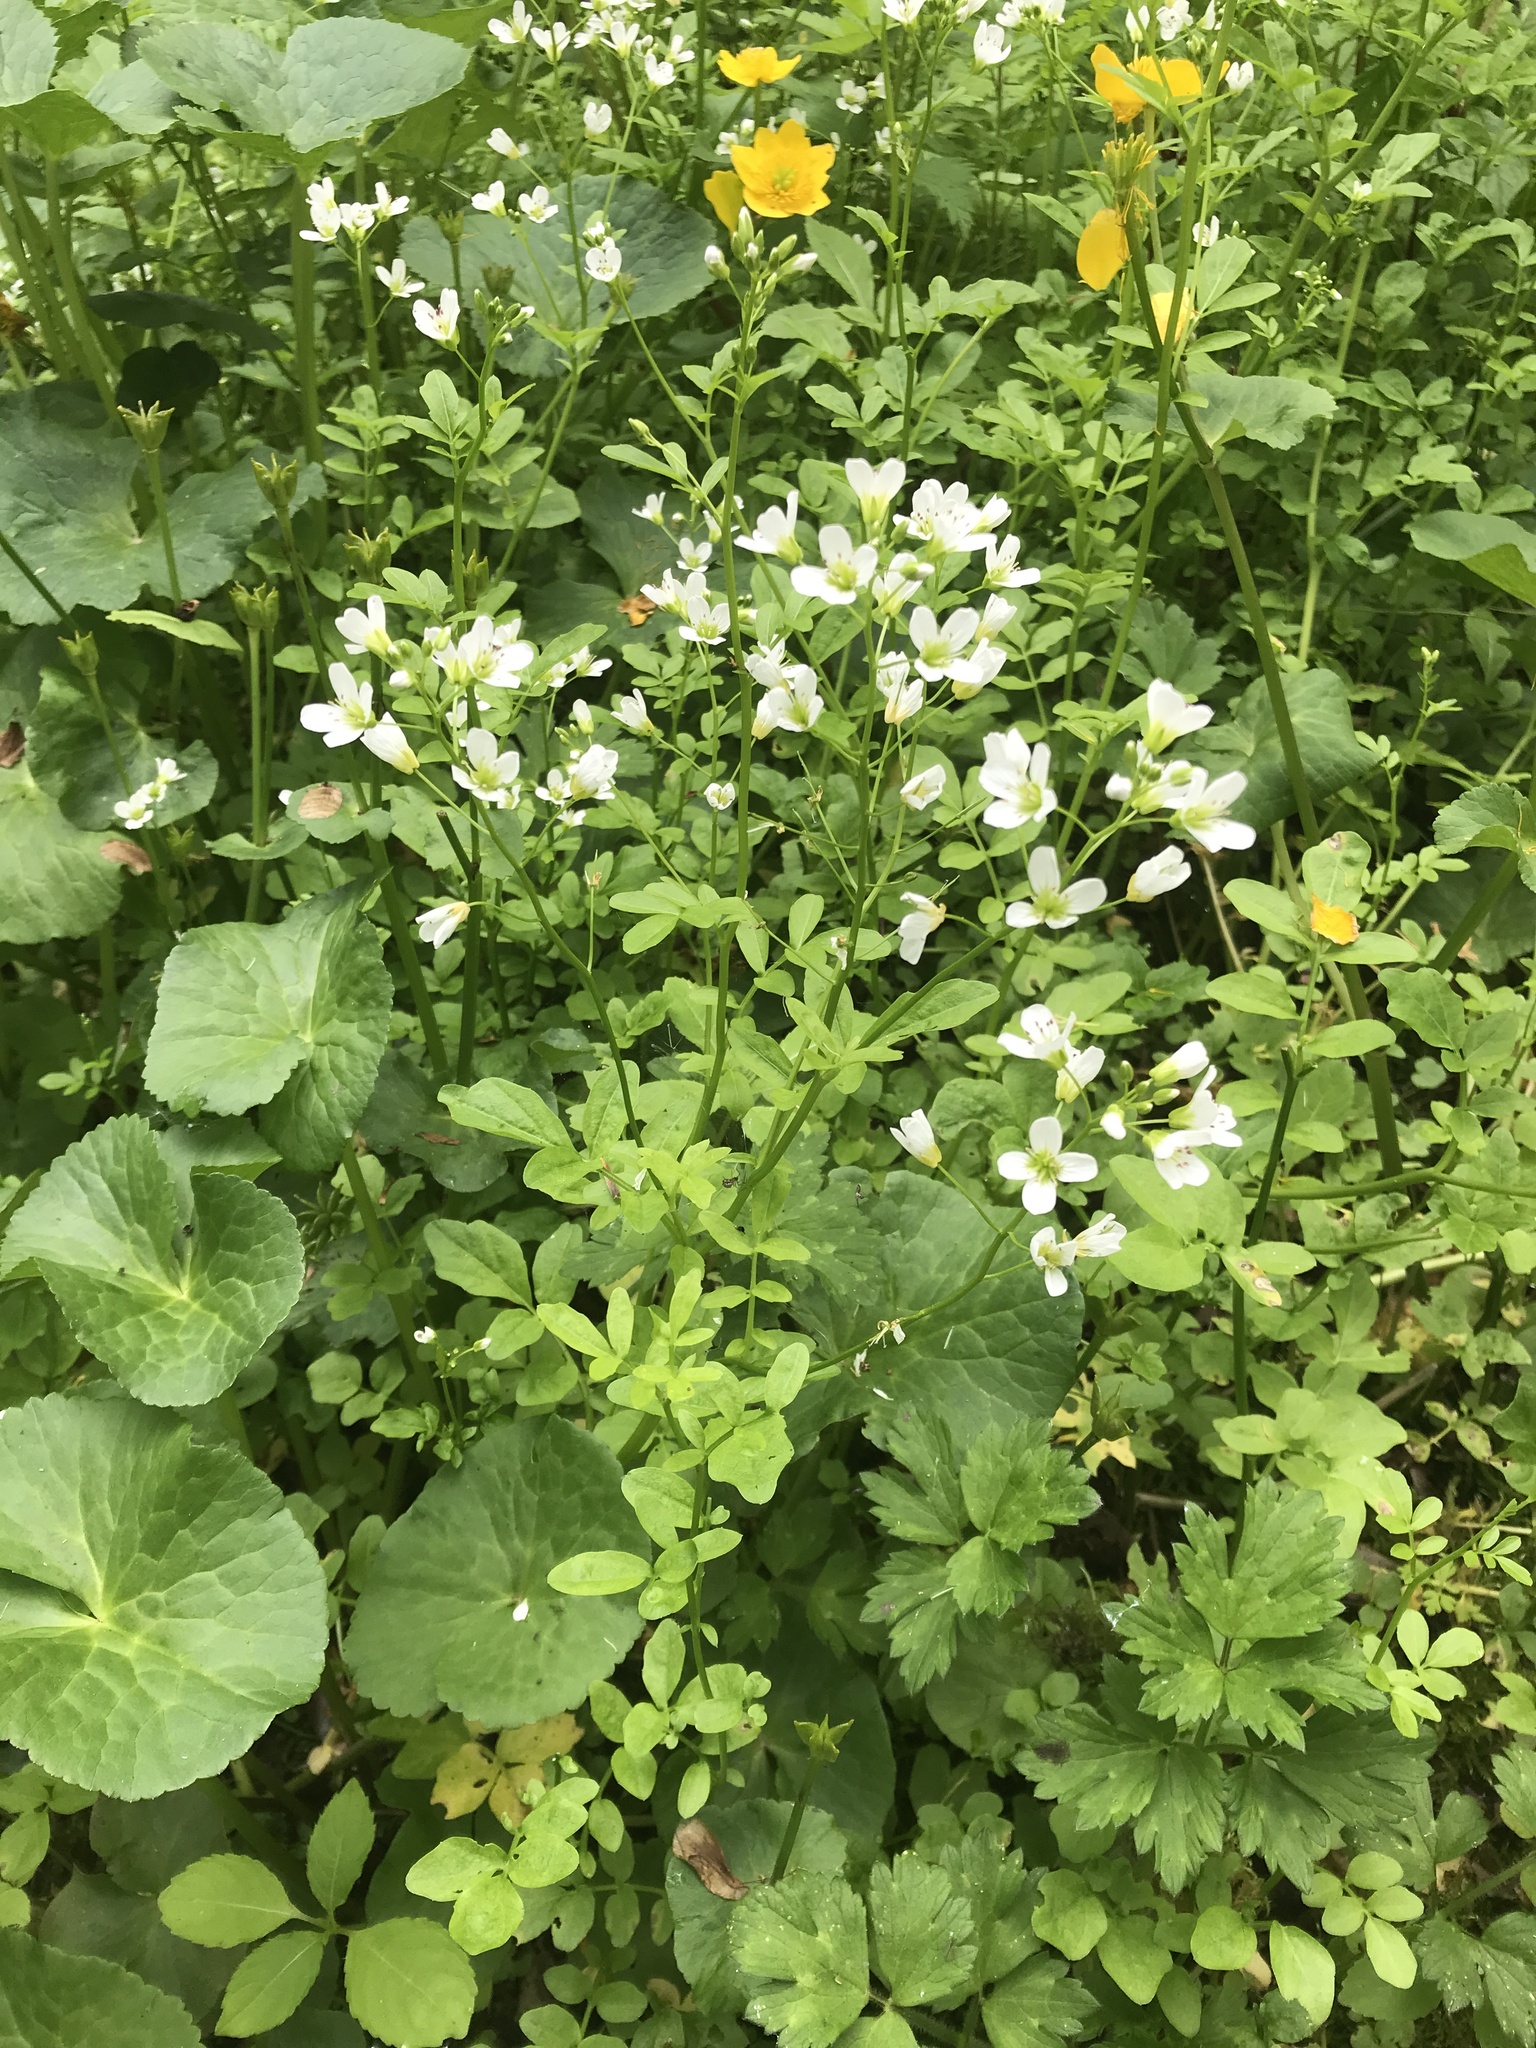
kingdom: Plantae
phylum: Tracheophyta
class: Magnoliopsida
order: Brassicales
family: Brassicaceae
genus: Cardamine
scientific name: Cardamine amara
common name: Large bitter-cress
